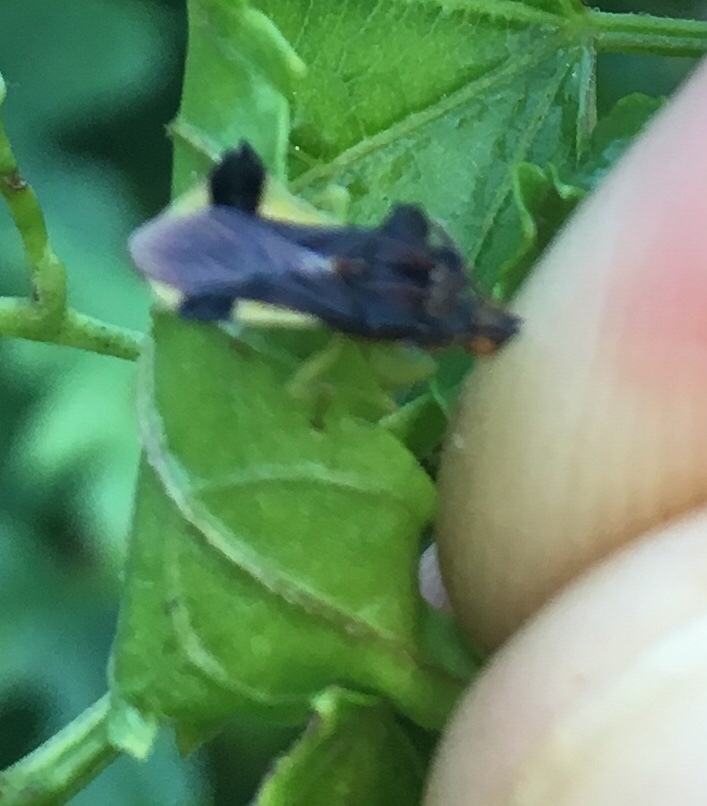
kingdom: Animalia
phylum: Arthropoda
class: Insecta
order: Hemiptera
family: Reduviidae
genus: Phymata
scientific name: Phymata pennsylvanica
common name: Pennsylvania ambush bug
